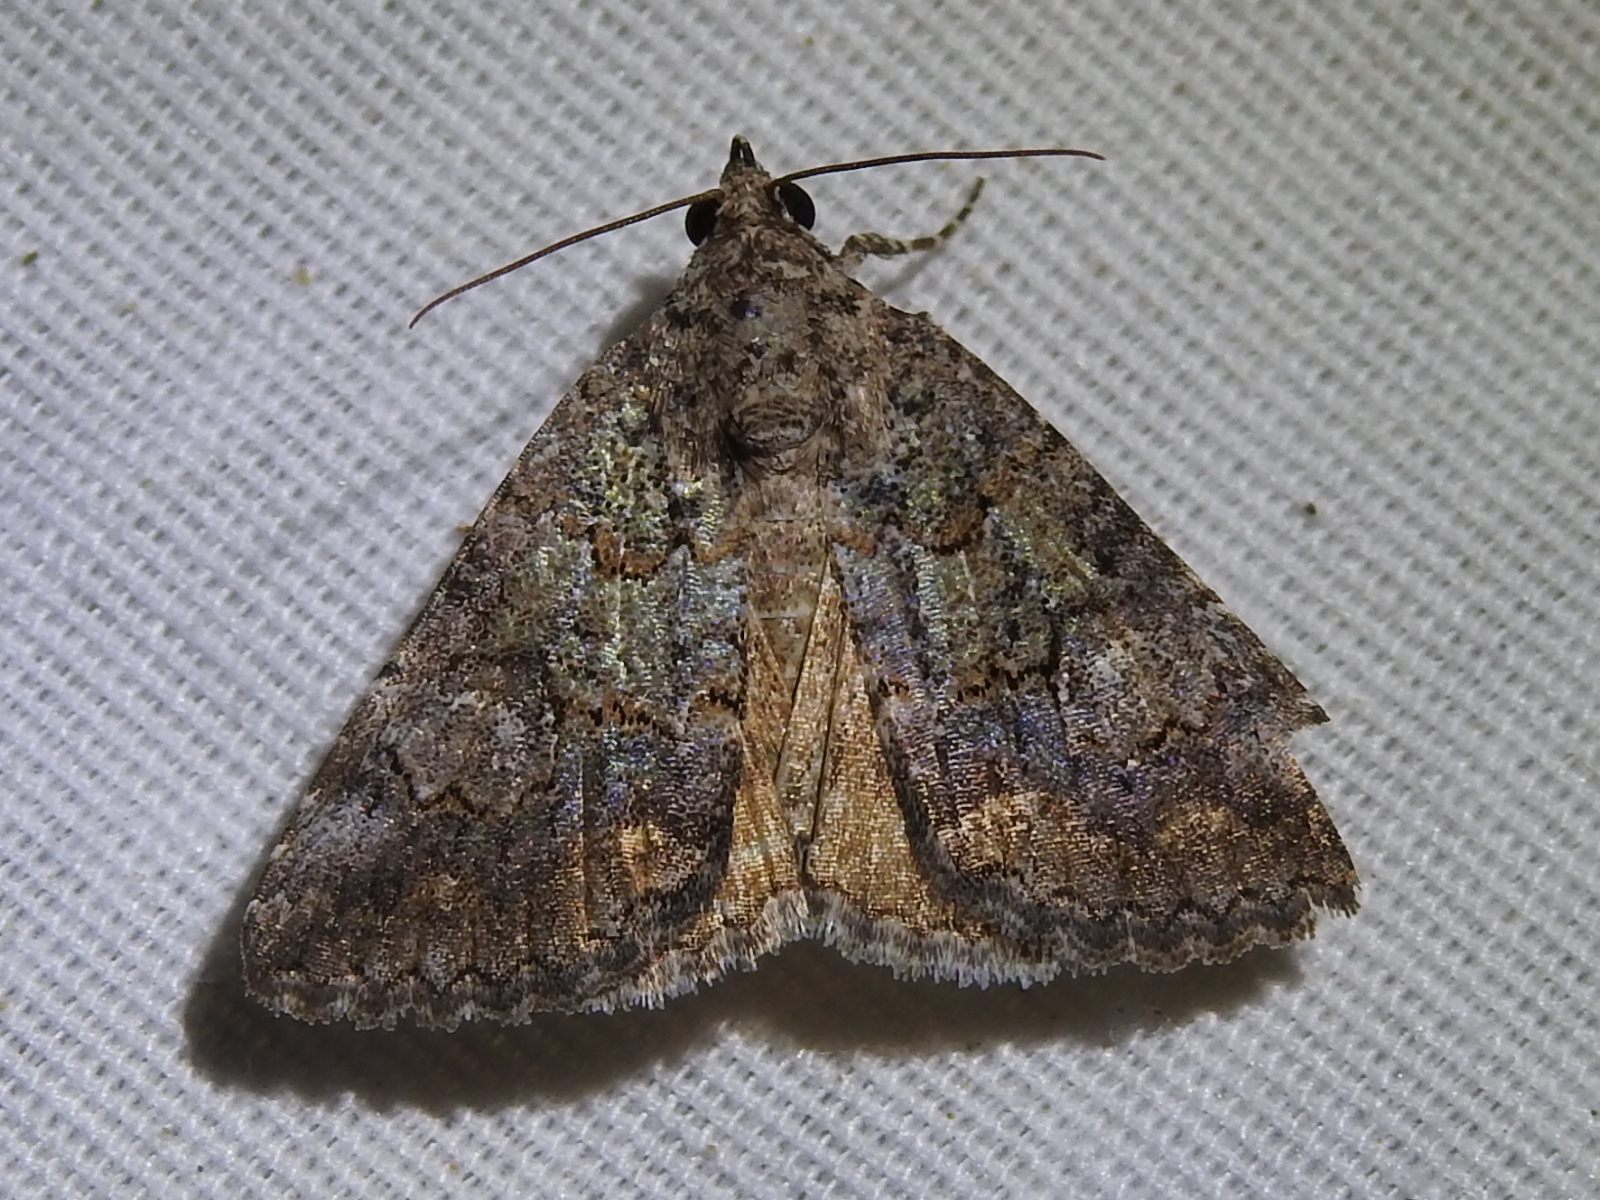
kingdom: Animalia
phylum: Arthropoda
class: Insecta
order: Lepidoptera
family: Erebidae
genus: Eubolina
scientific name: Eubolina impartialis
